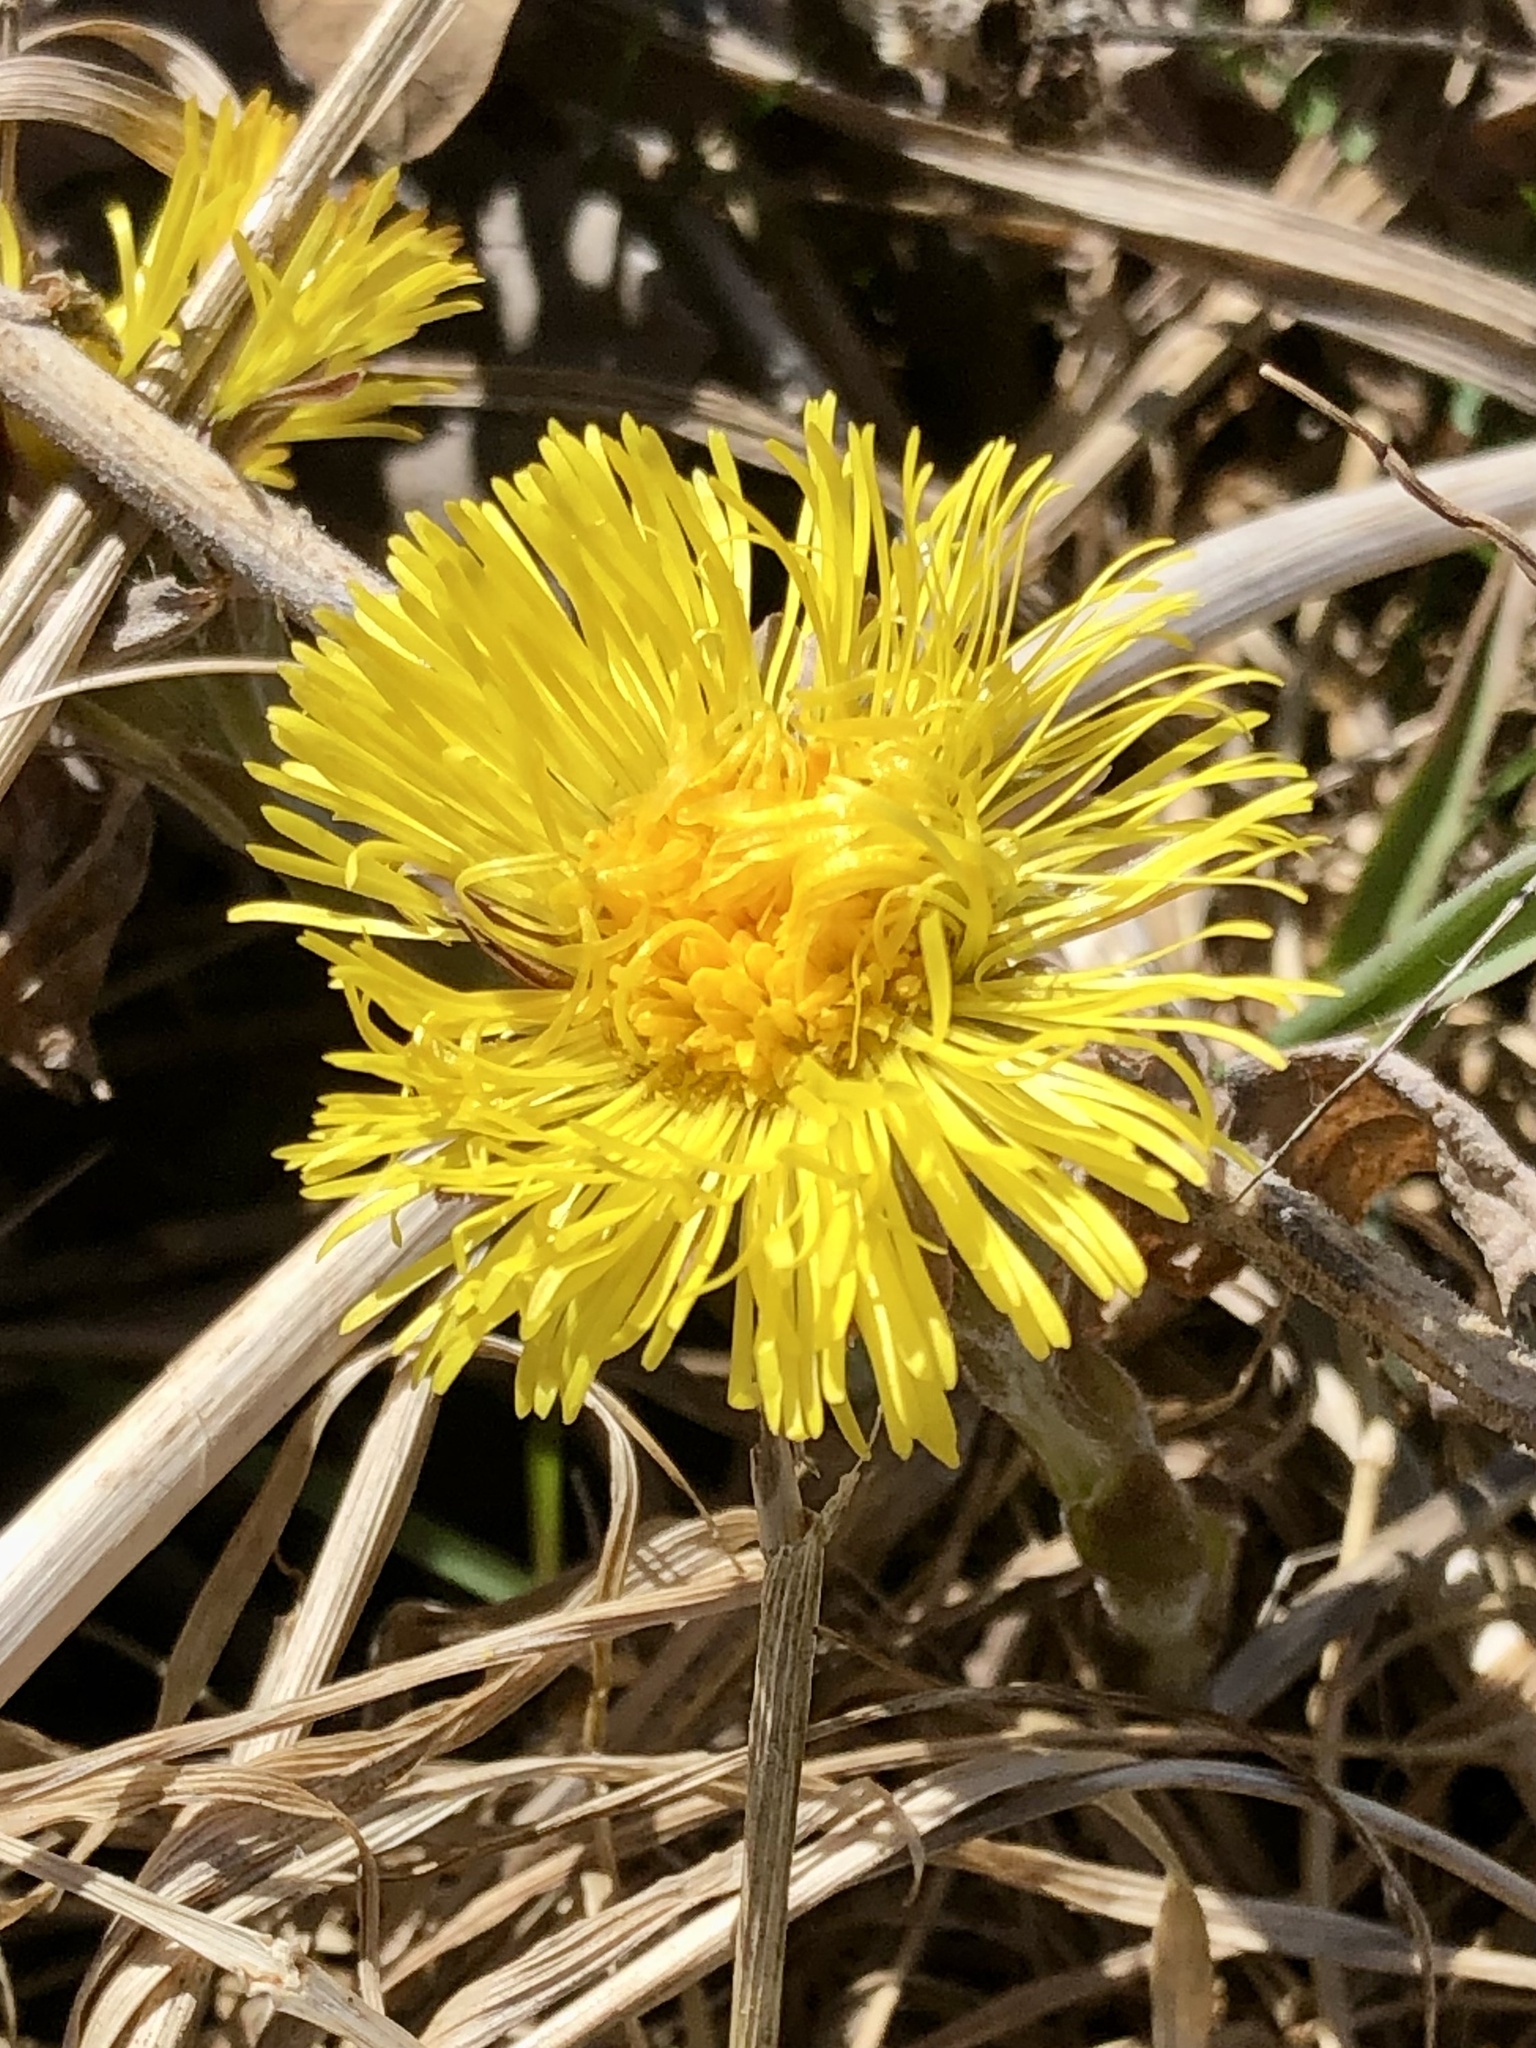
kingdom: Plantae
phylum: Tracheophyta
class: Magnoliopsida
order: Asterales
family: Asteraceae
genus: Tussilago
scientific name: Tussilago farfara
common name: Coltsfoot
